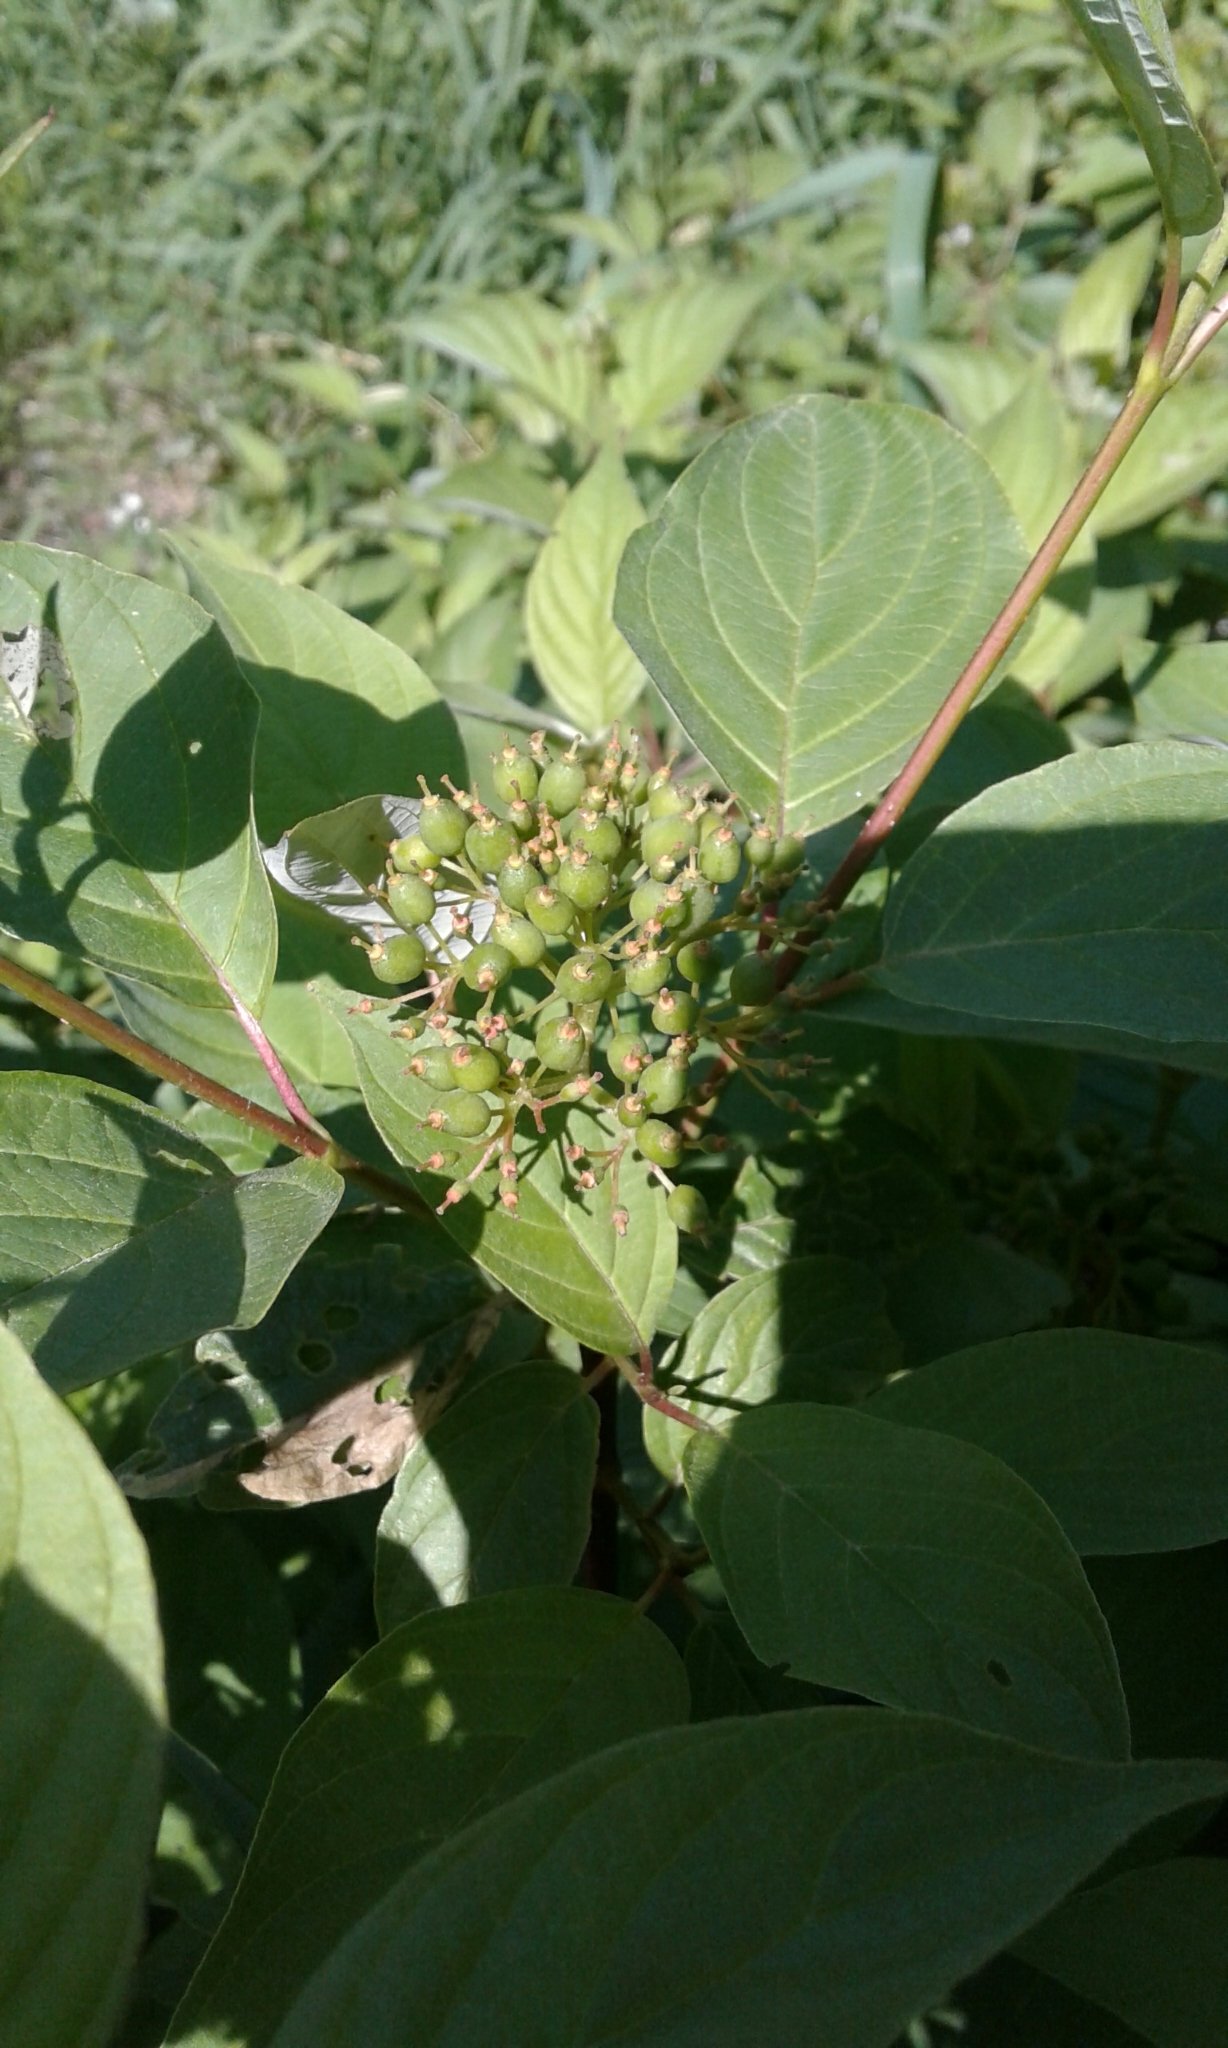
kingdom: Plantae
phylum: Tracheophyta
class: Magnoliopsida
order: Cornales
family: Cornaceae
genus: Cornus
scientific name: Cornus sericea
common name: Red-osier dogwood
